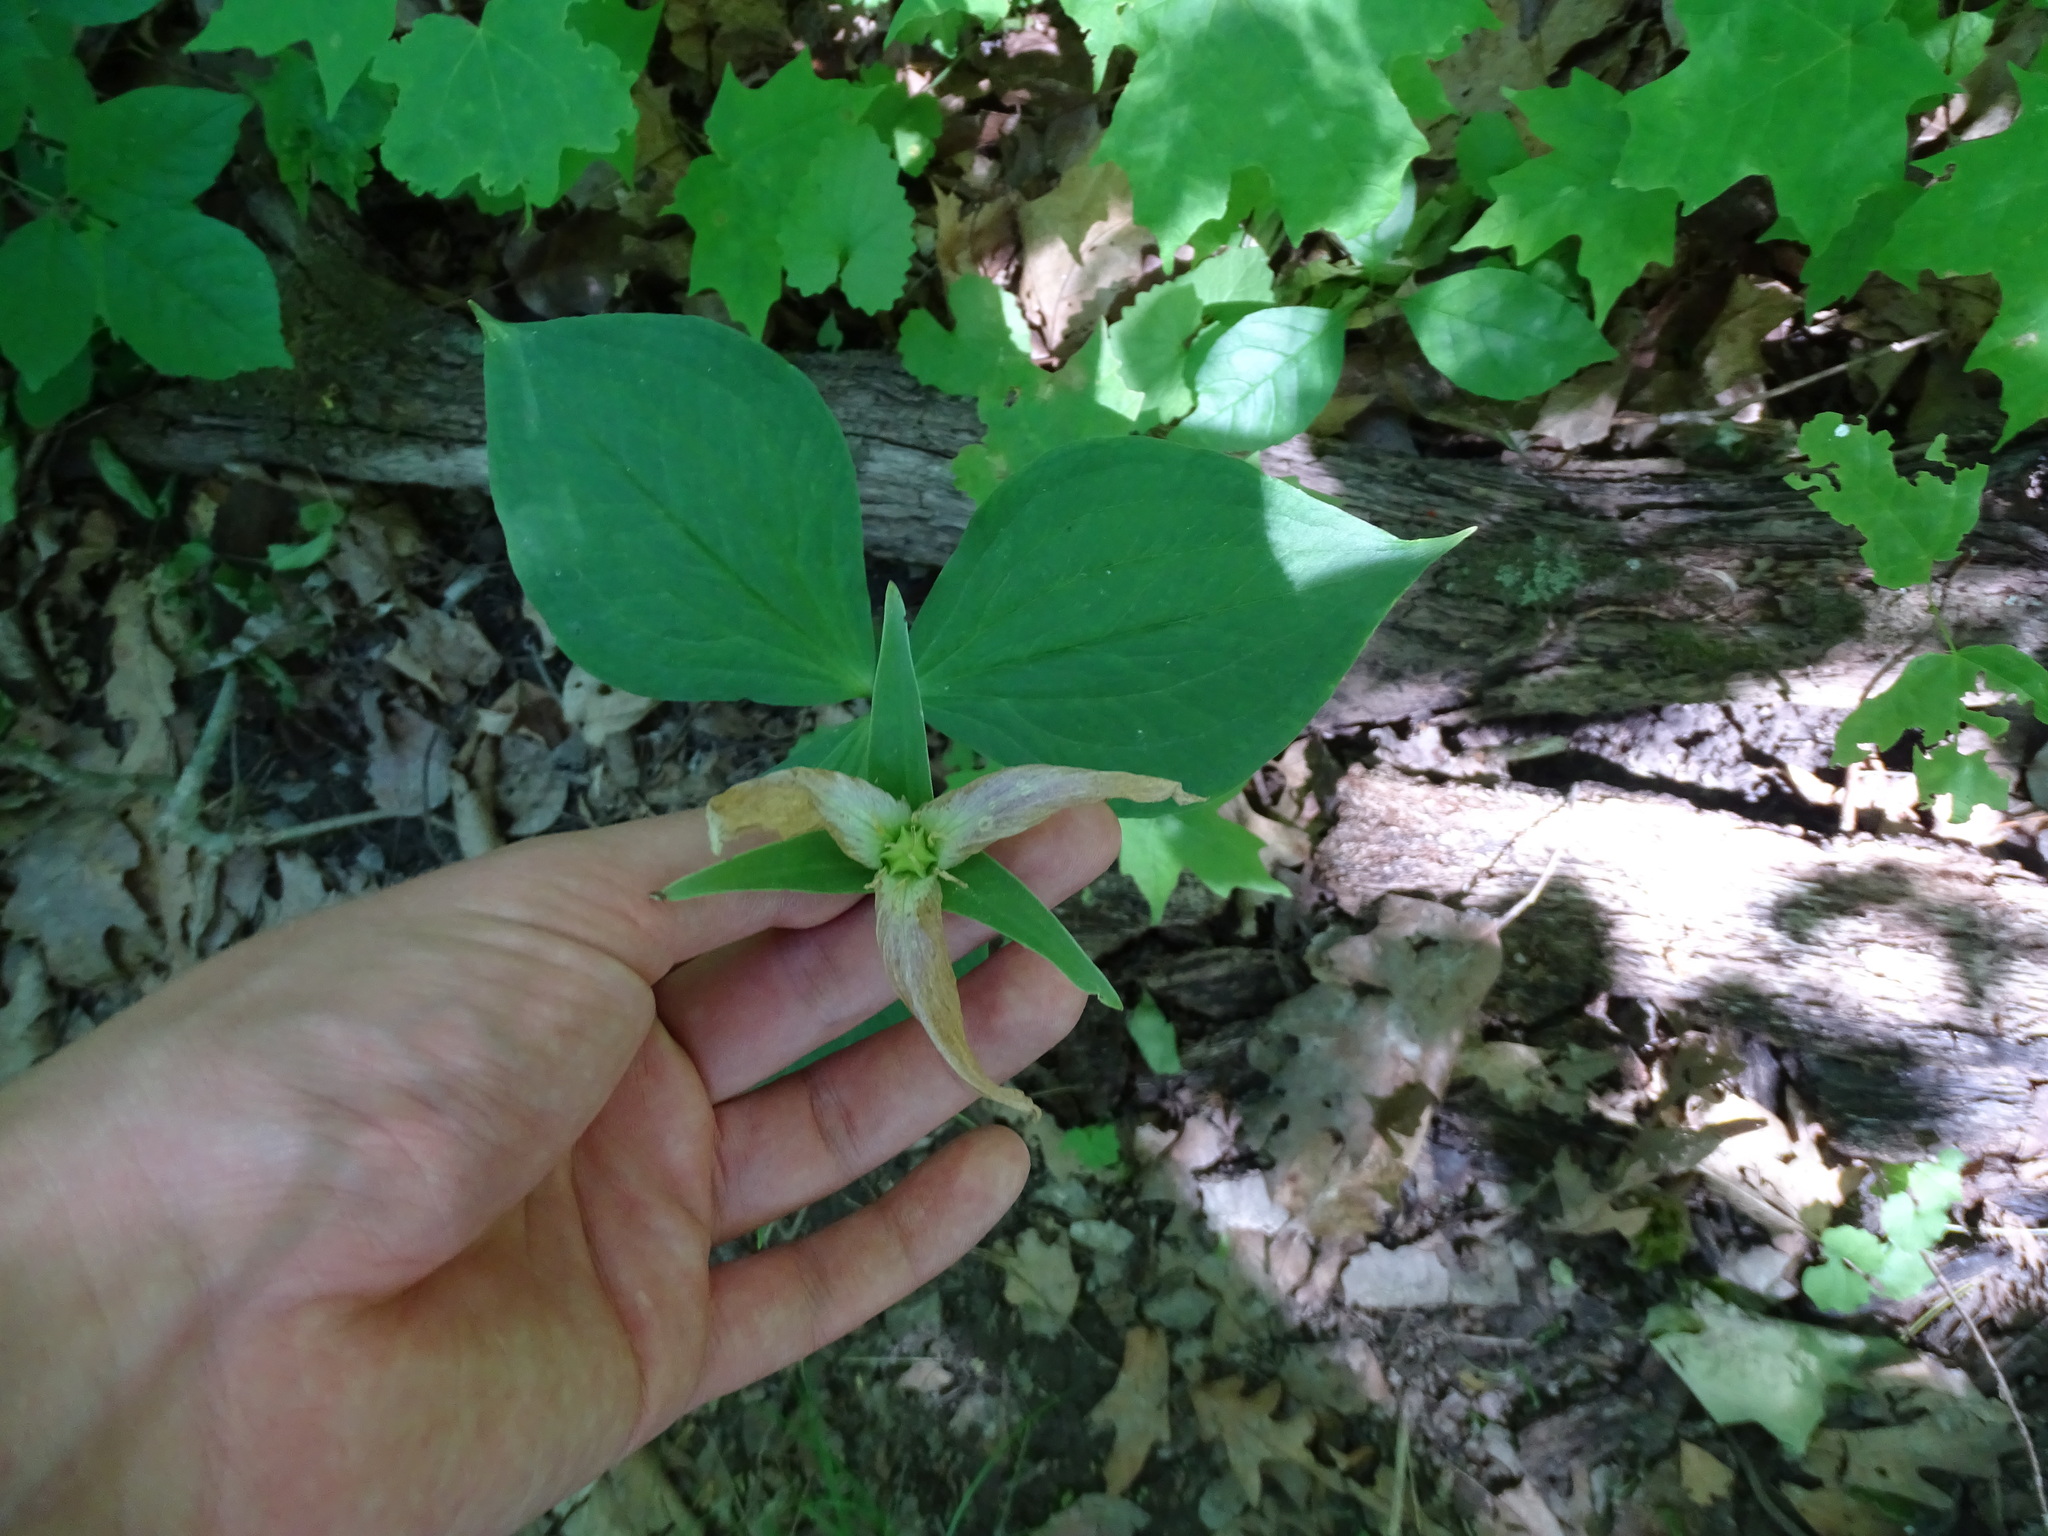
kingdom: Plantae
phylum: Tracheophyta
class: Liliopsida
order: Liliales
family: Melanthiaceae
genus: Trillium
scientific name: Trillium grandiflorum
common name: Great white trillium
